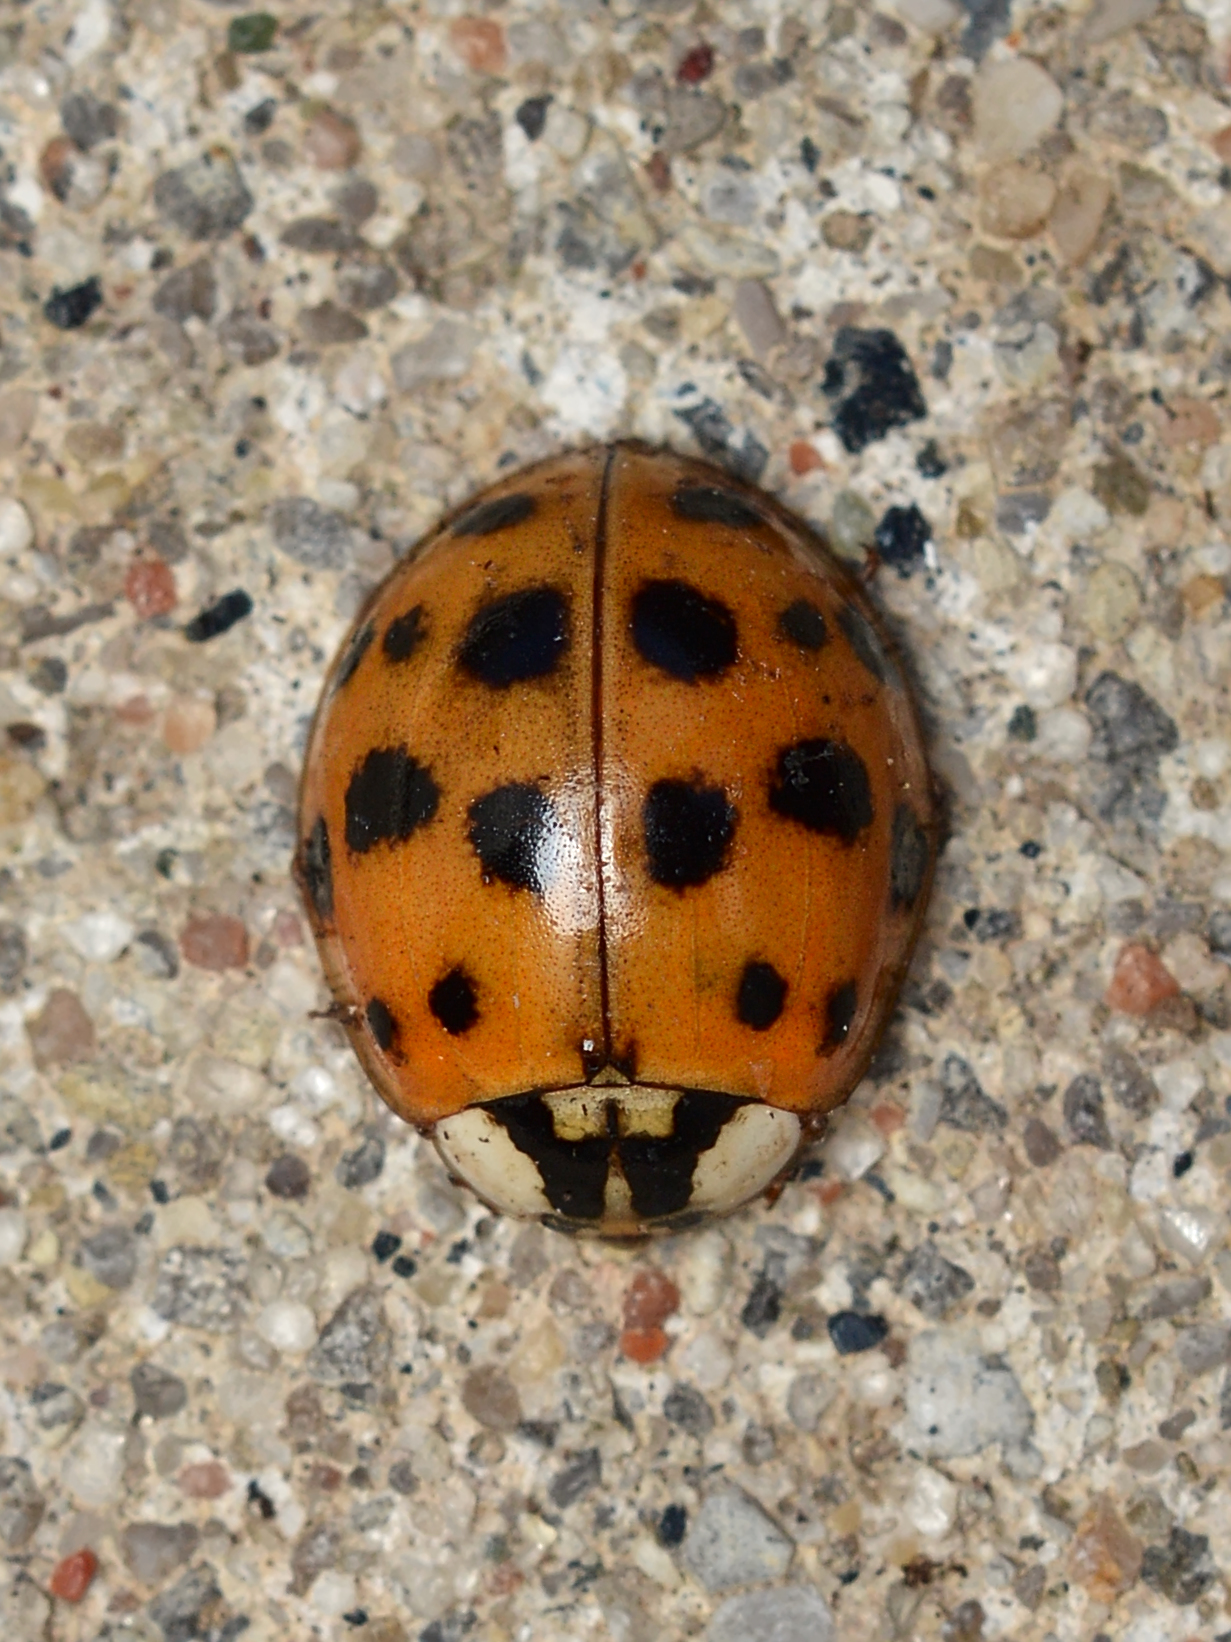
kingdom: Animalia
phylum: Arthropoda
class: Insecta
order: Coleoptera
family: Coccinellidae
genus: Harmonia
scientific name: Harmonia axyridis
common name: Harlequin ladybird
